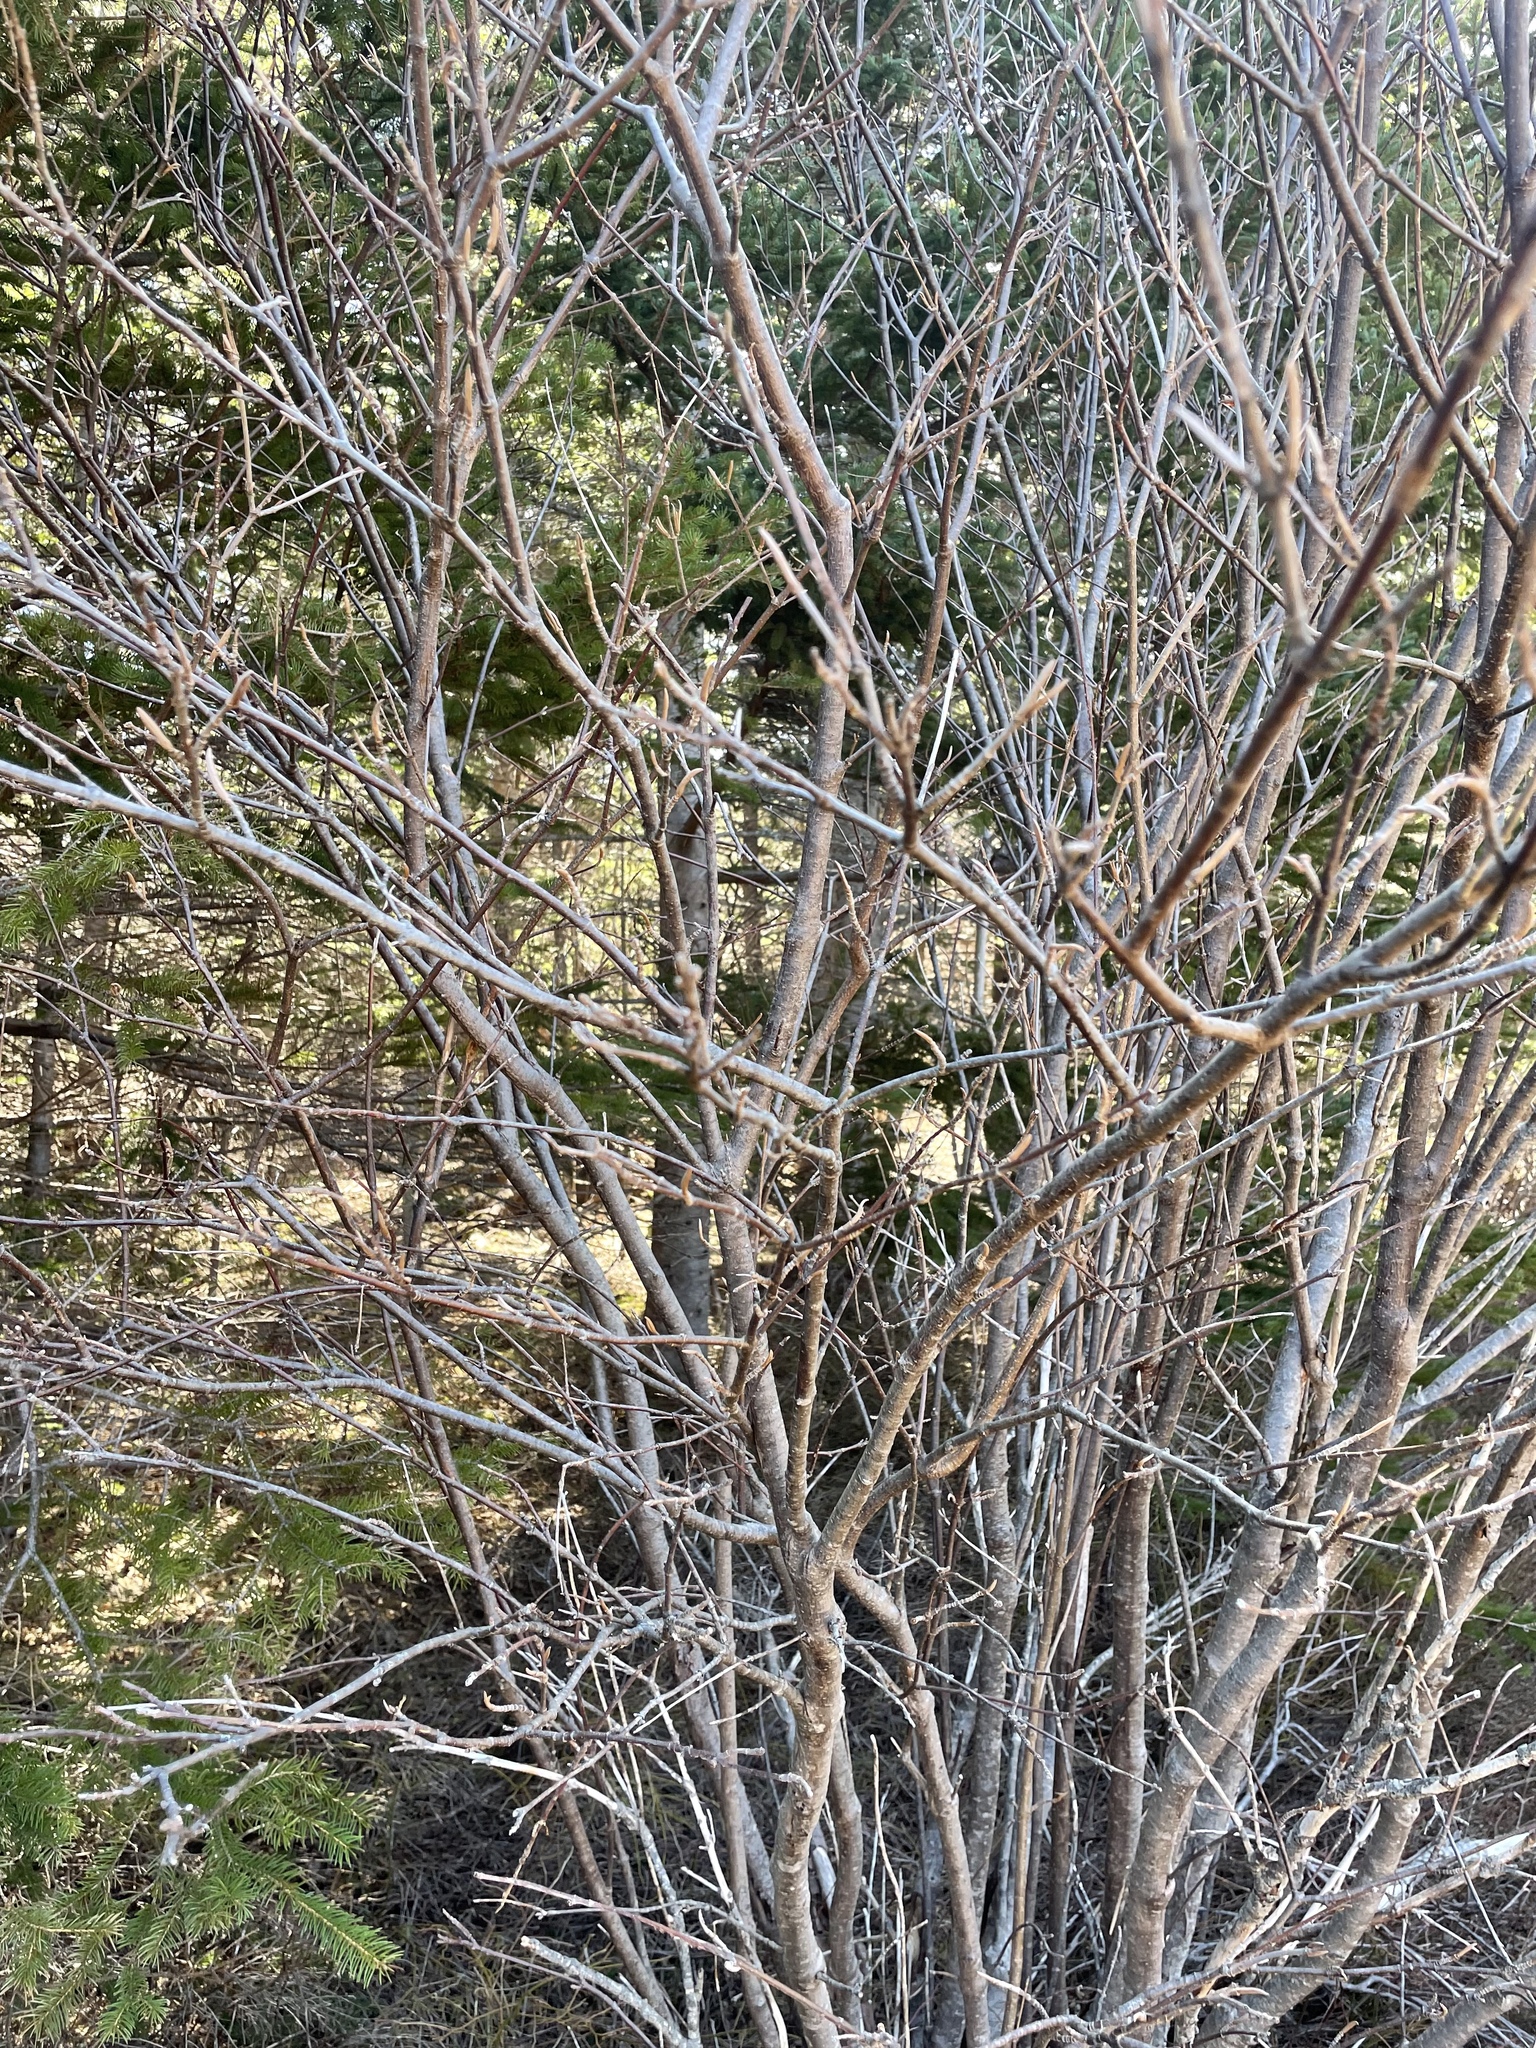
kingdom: Plantae
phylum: Tracheophyta
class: Magnoliopsida
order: Dipsacales
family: Viburnaceae
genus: Viburnum
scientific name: Viburnum cassinoides
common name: Swamp haw
